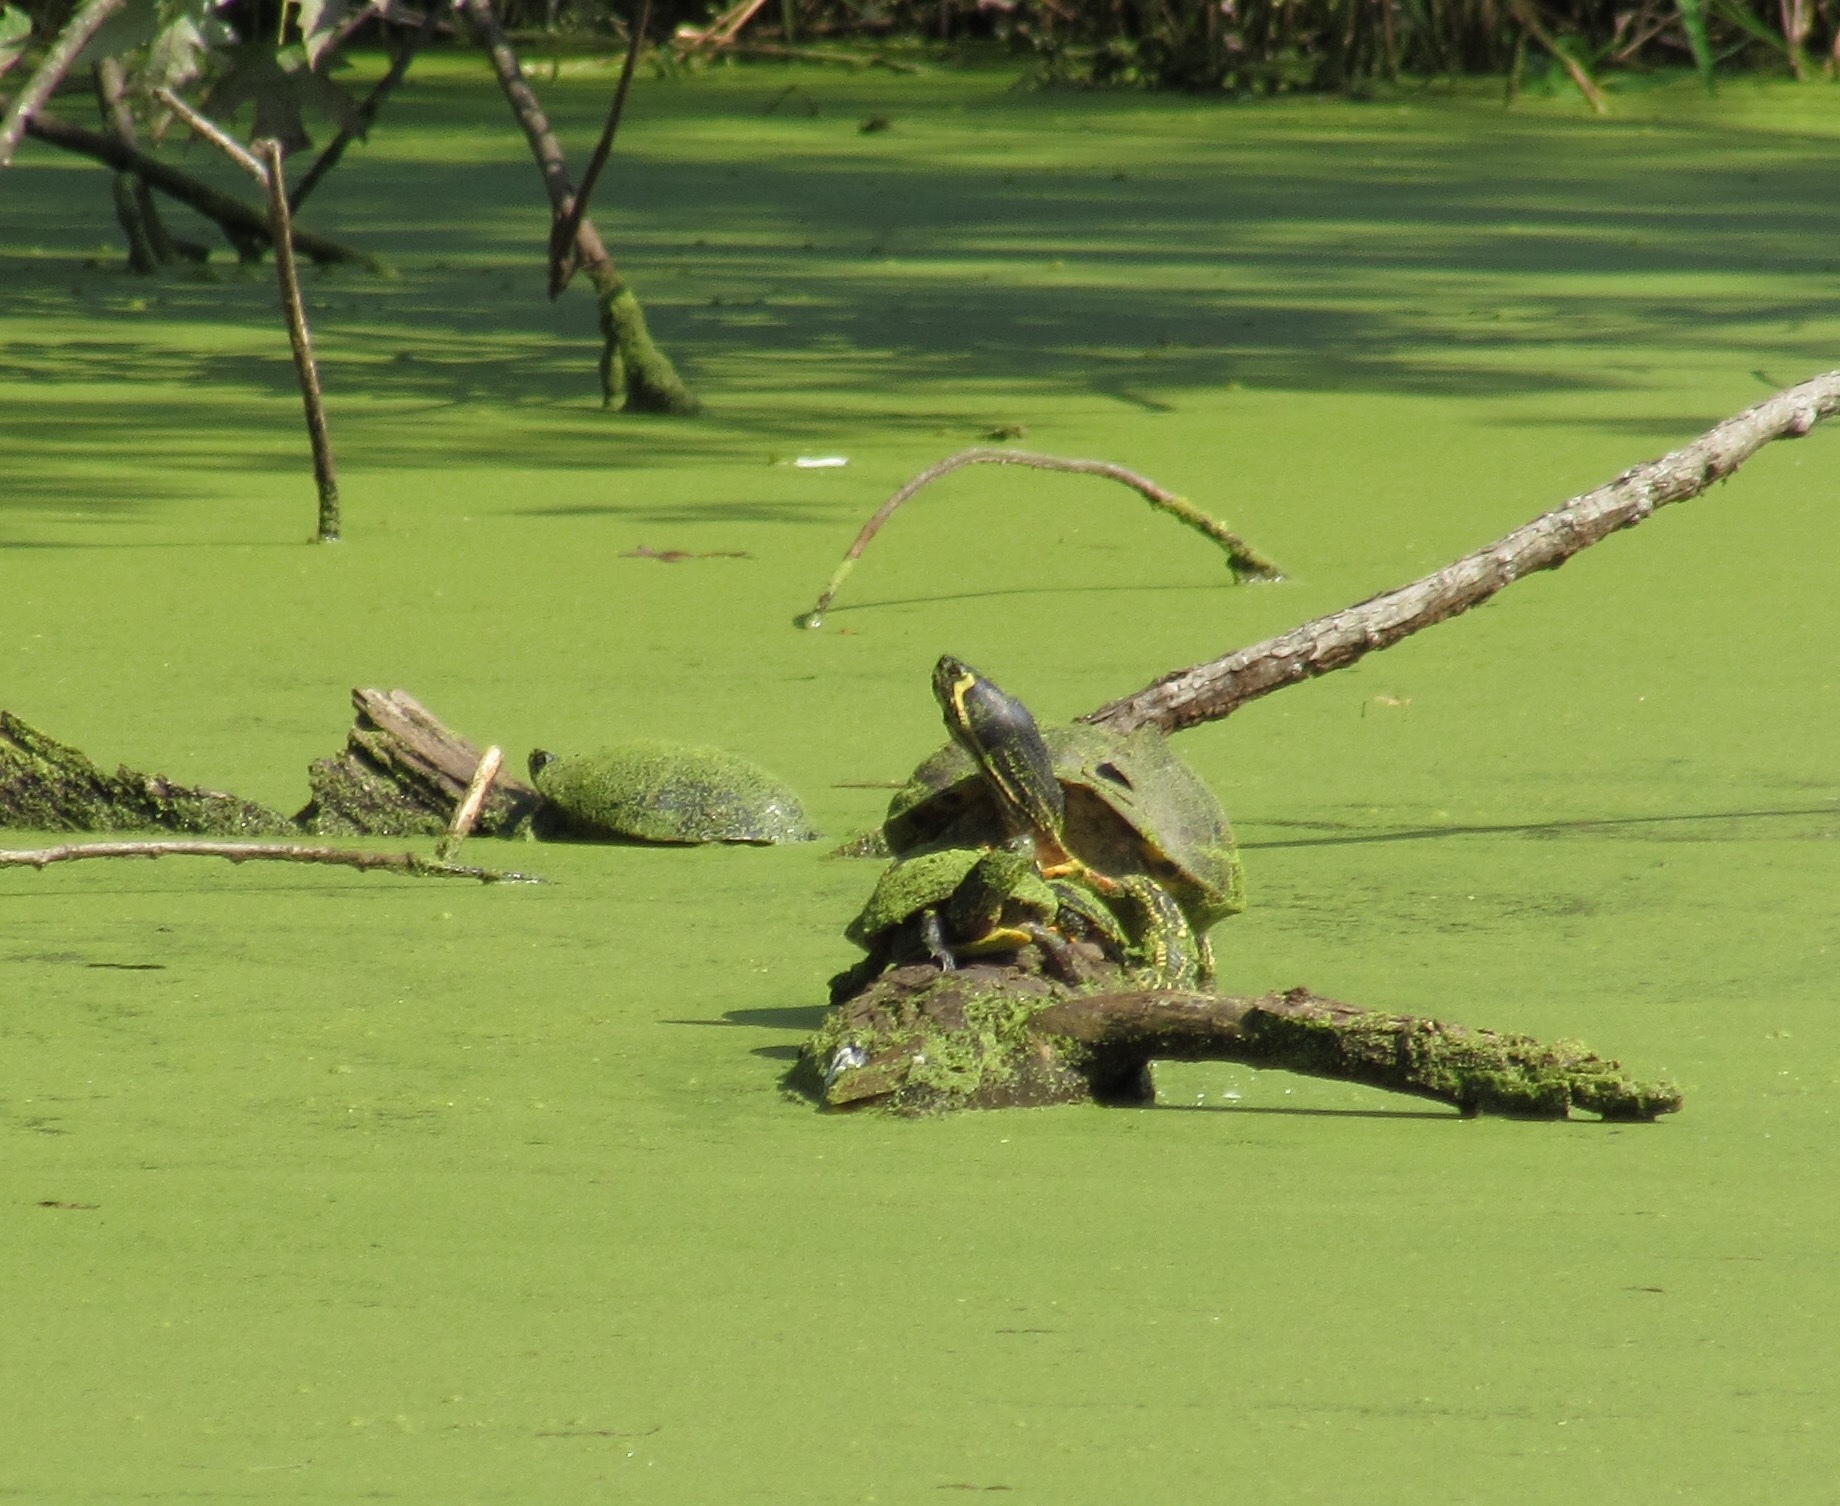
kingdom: Animalia
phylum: Chordata
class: Testudines
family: Emydidae
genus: Trachemys
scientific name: Trachemys scripta
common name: Slider
